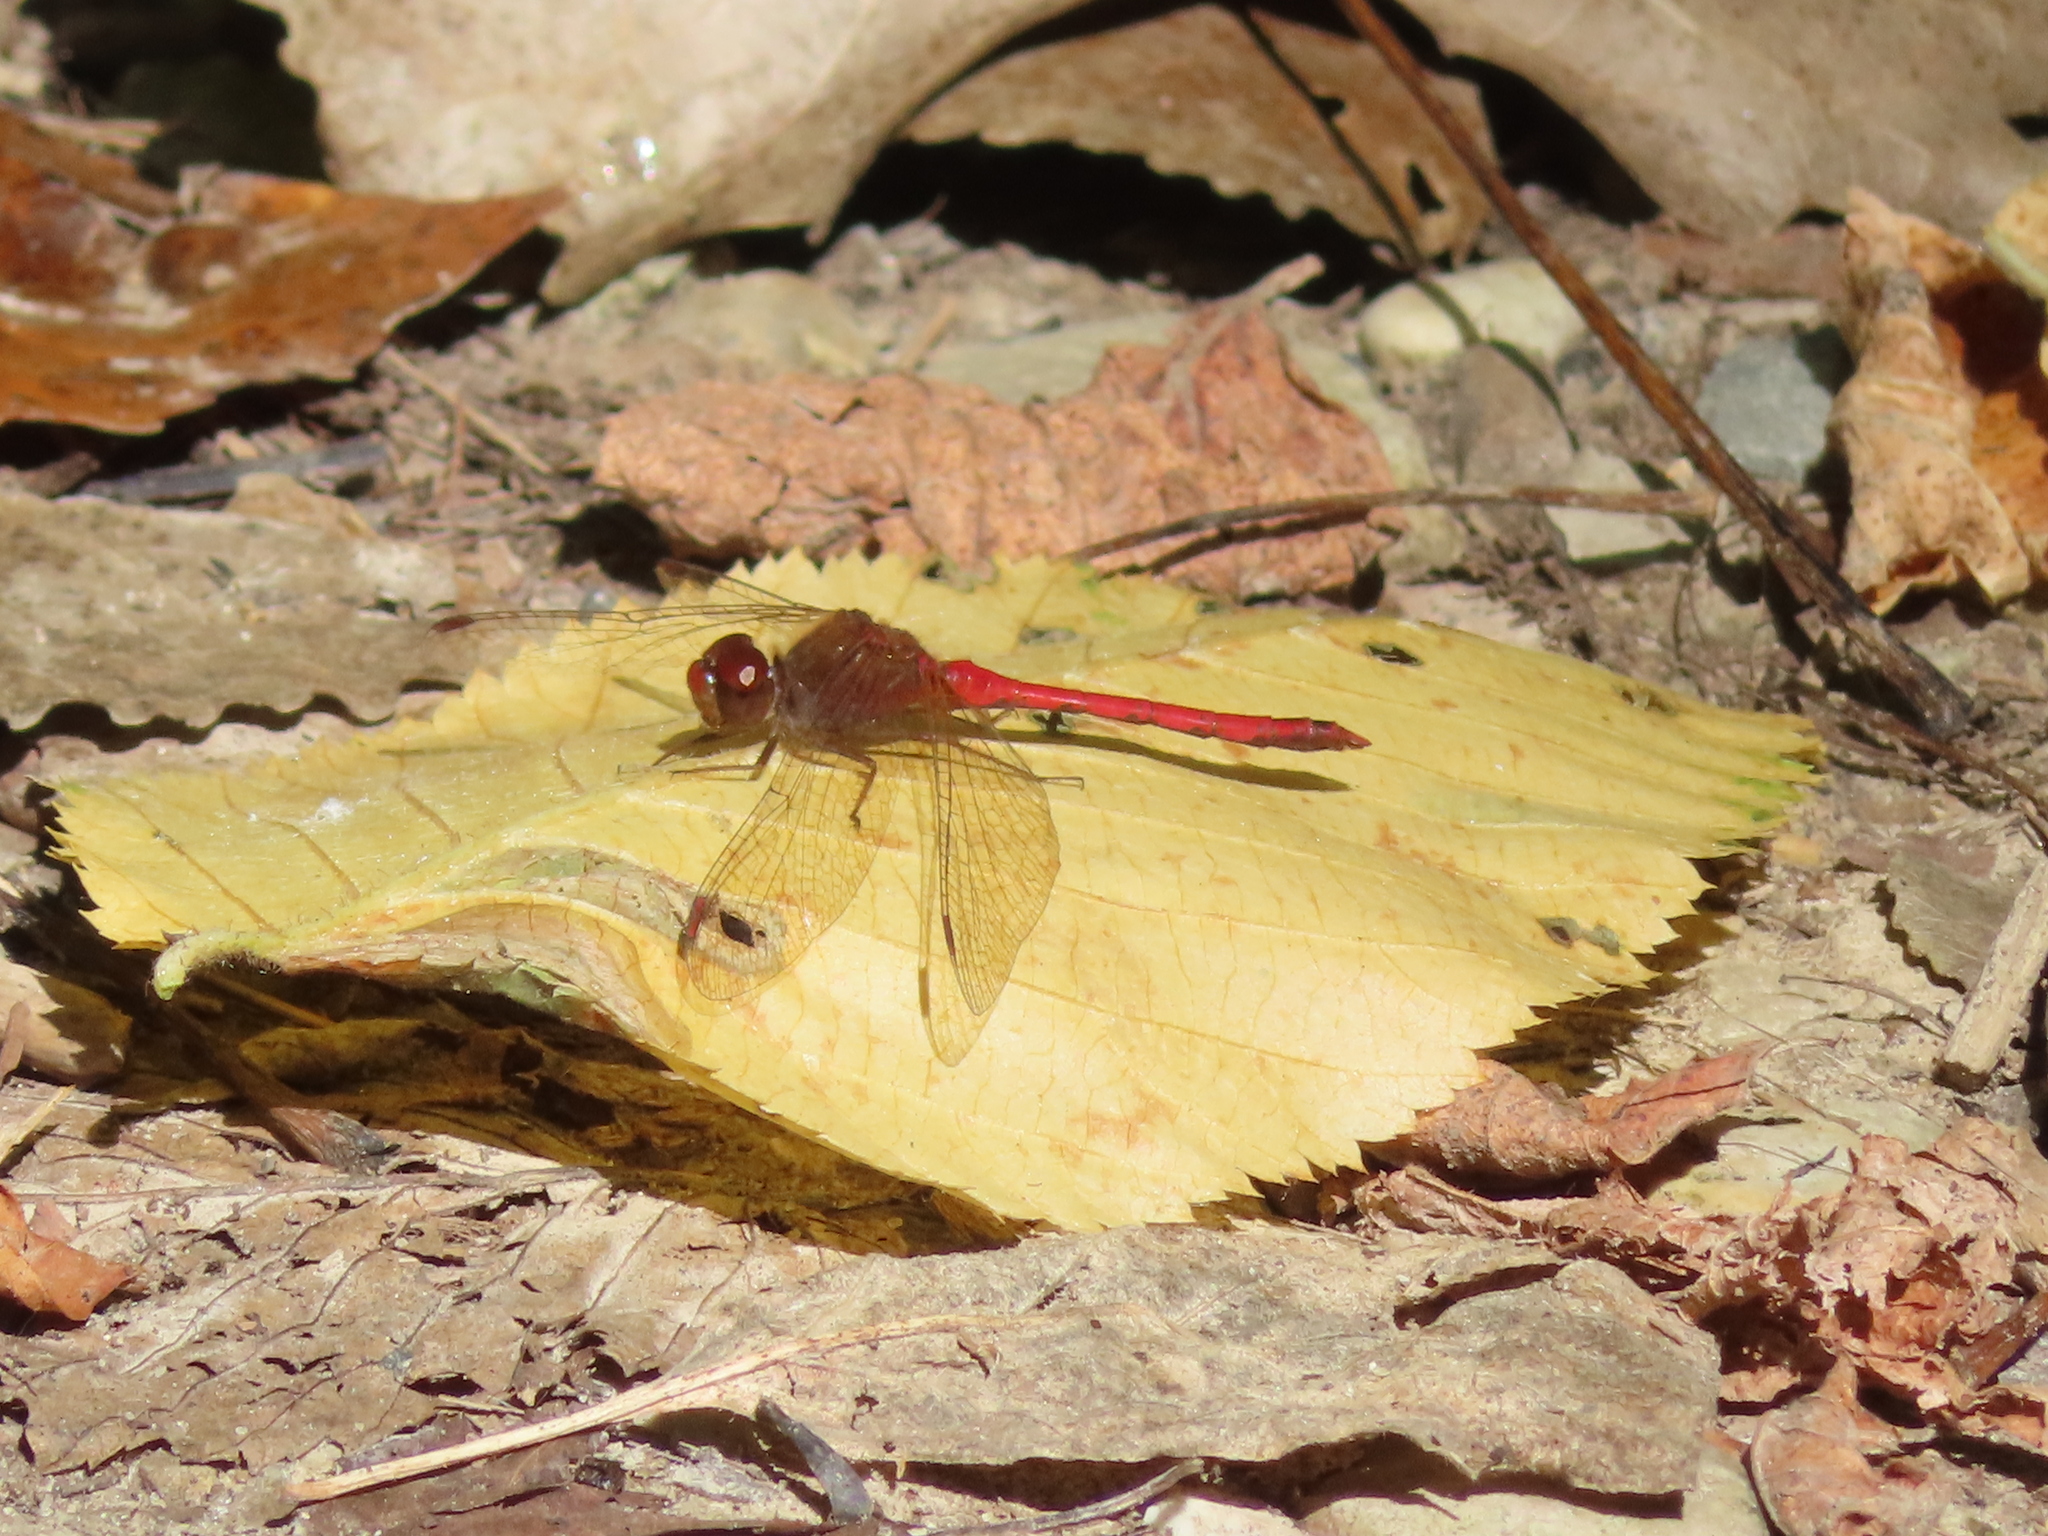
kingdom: Animalia
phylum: Arthropoda
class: Insecta
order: Odonata
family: Libellulidae
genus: Sympetrum
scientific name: Sympetrum vicinum
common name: Autumn meadowhawk
